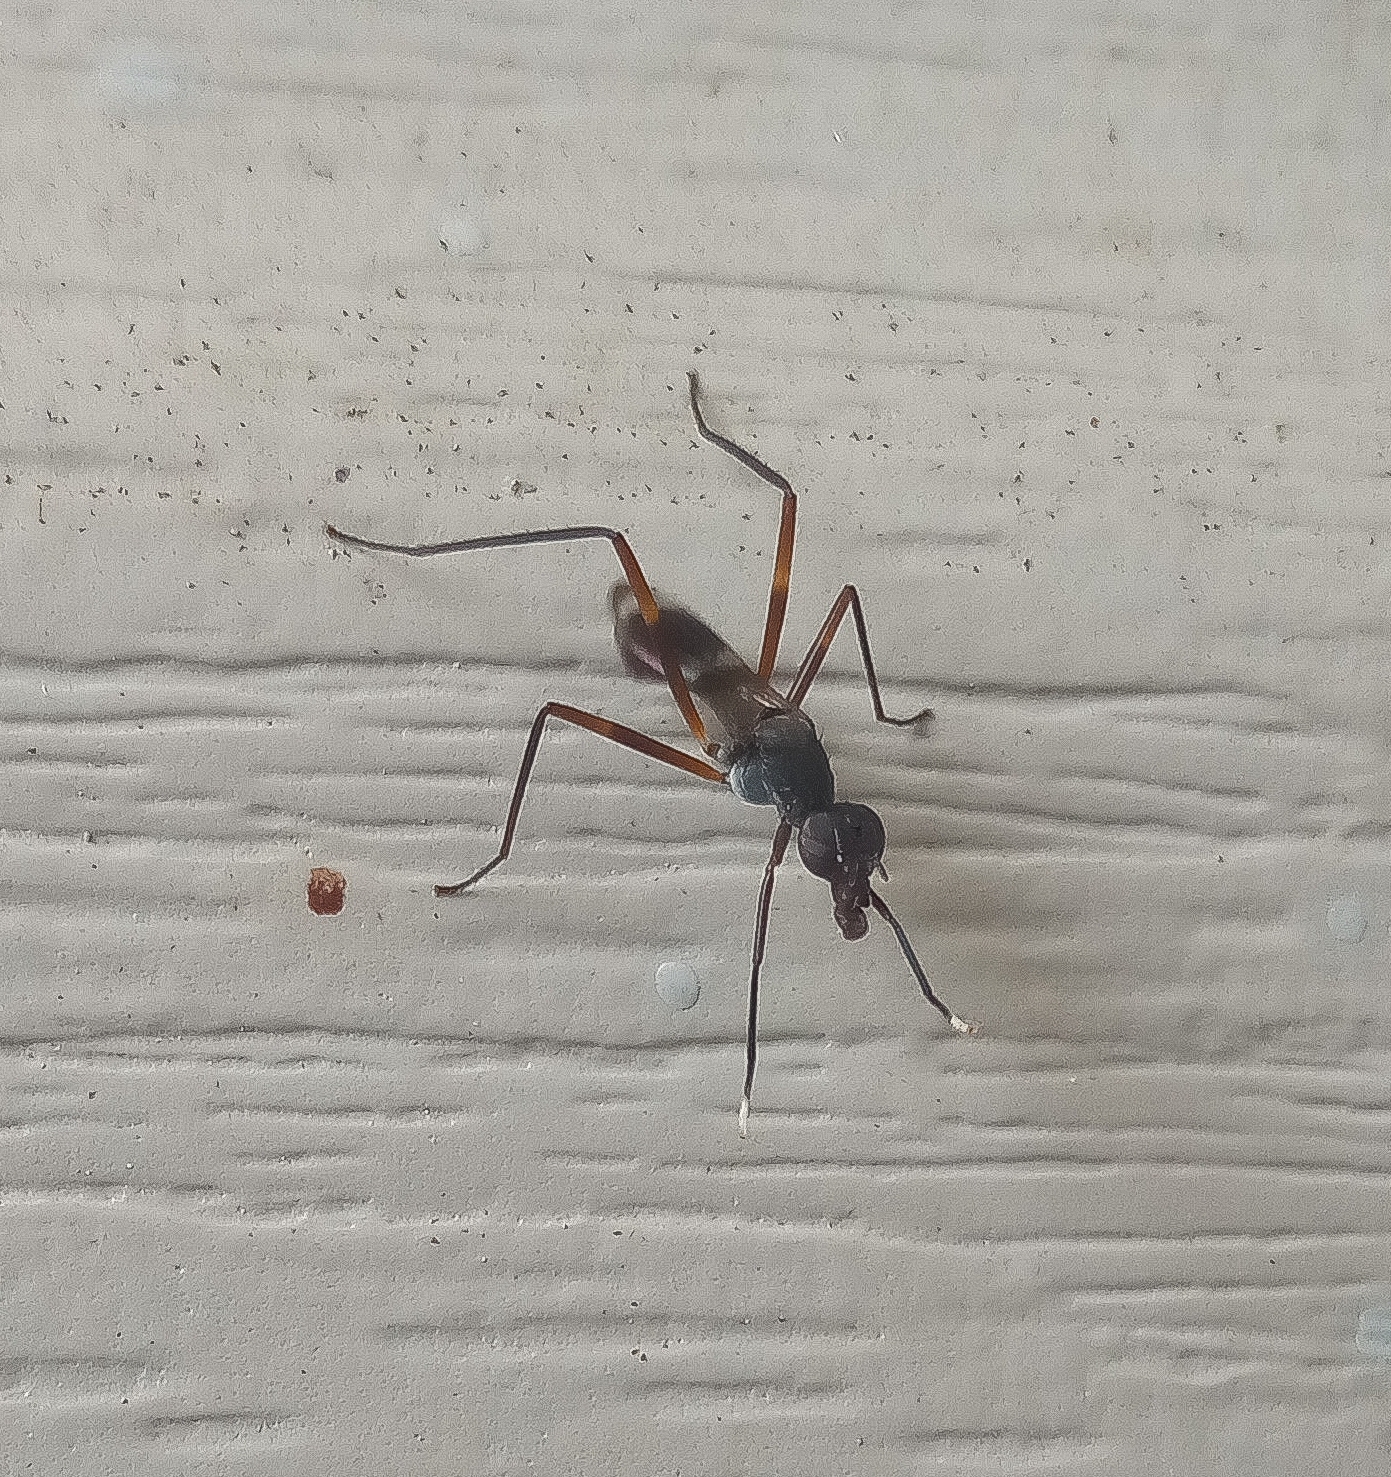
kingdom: Animalia
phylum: Arthropoda
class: Insecta
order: Diptera
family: Micropezidae
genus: Taeniaptera
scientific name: Taeniaptera trivittata
